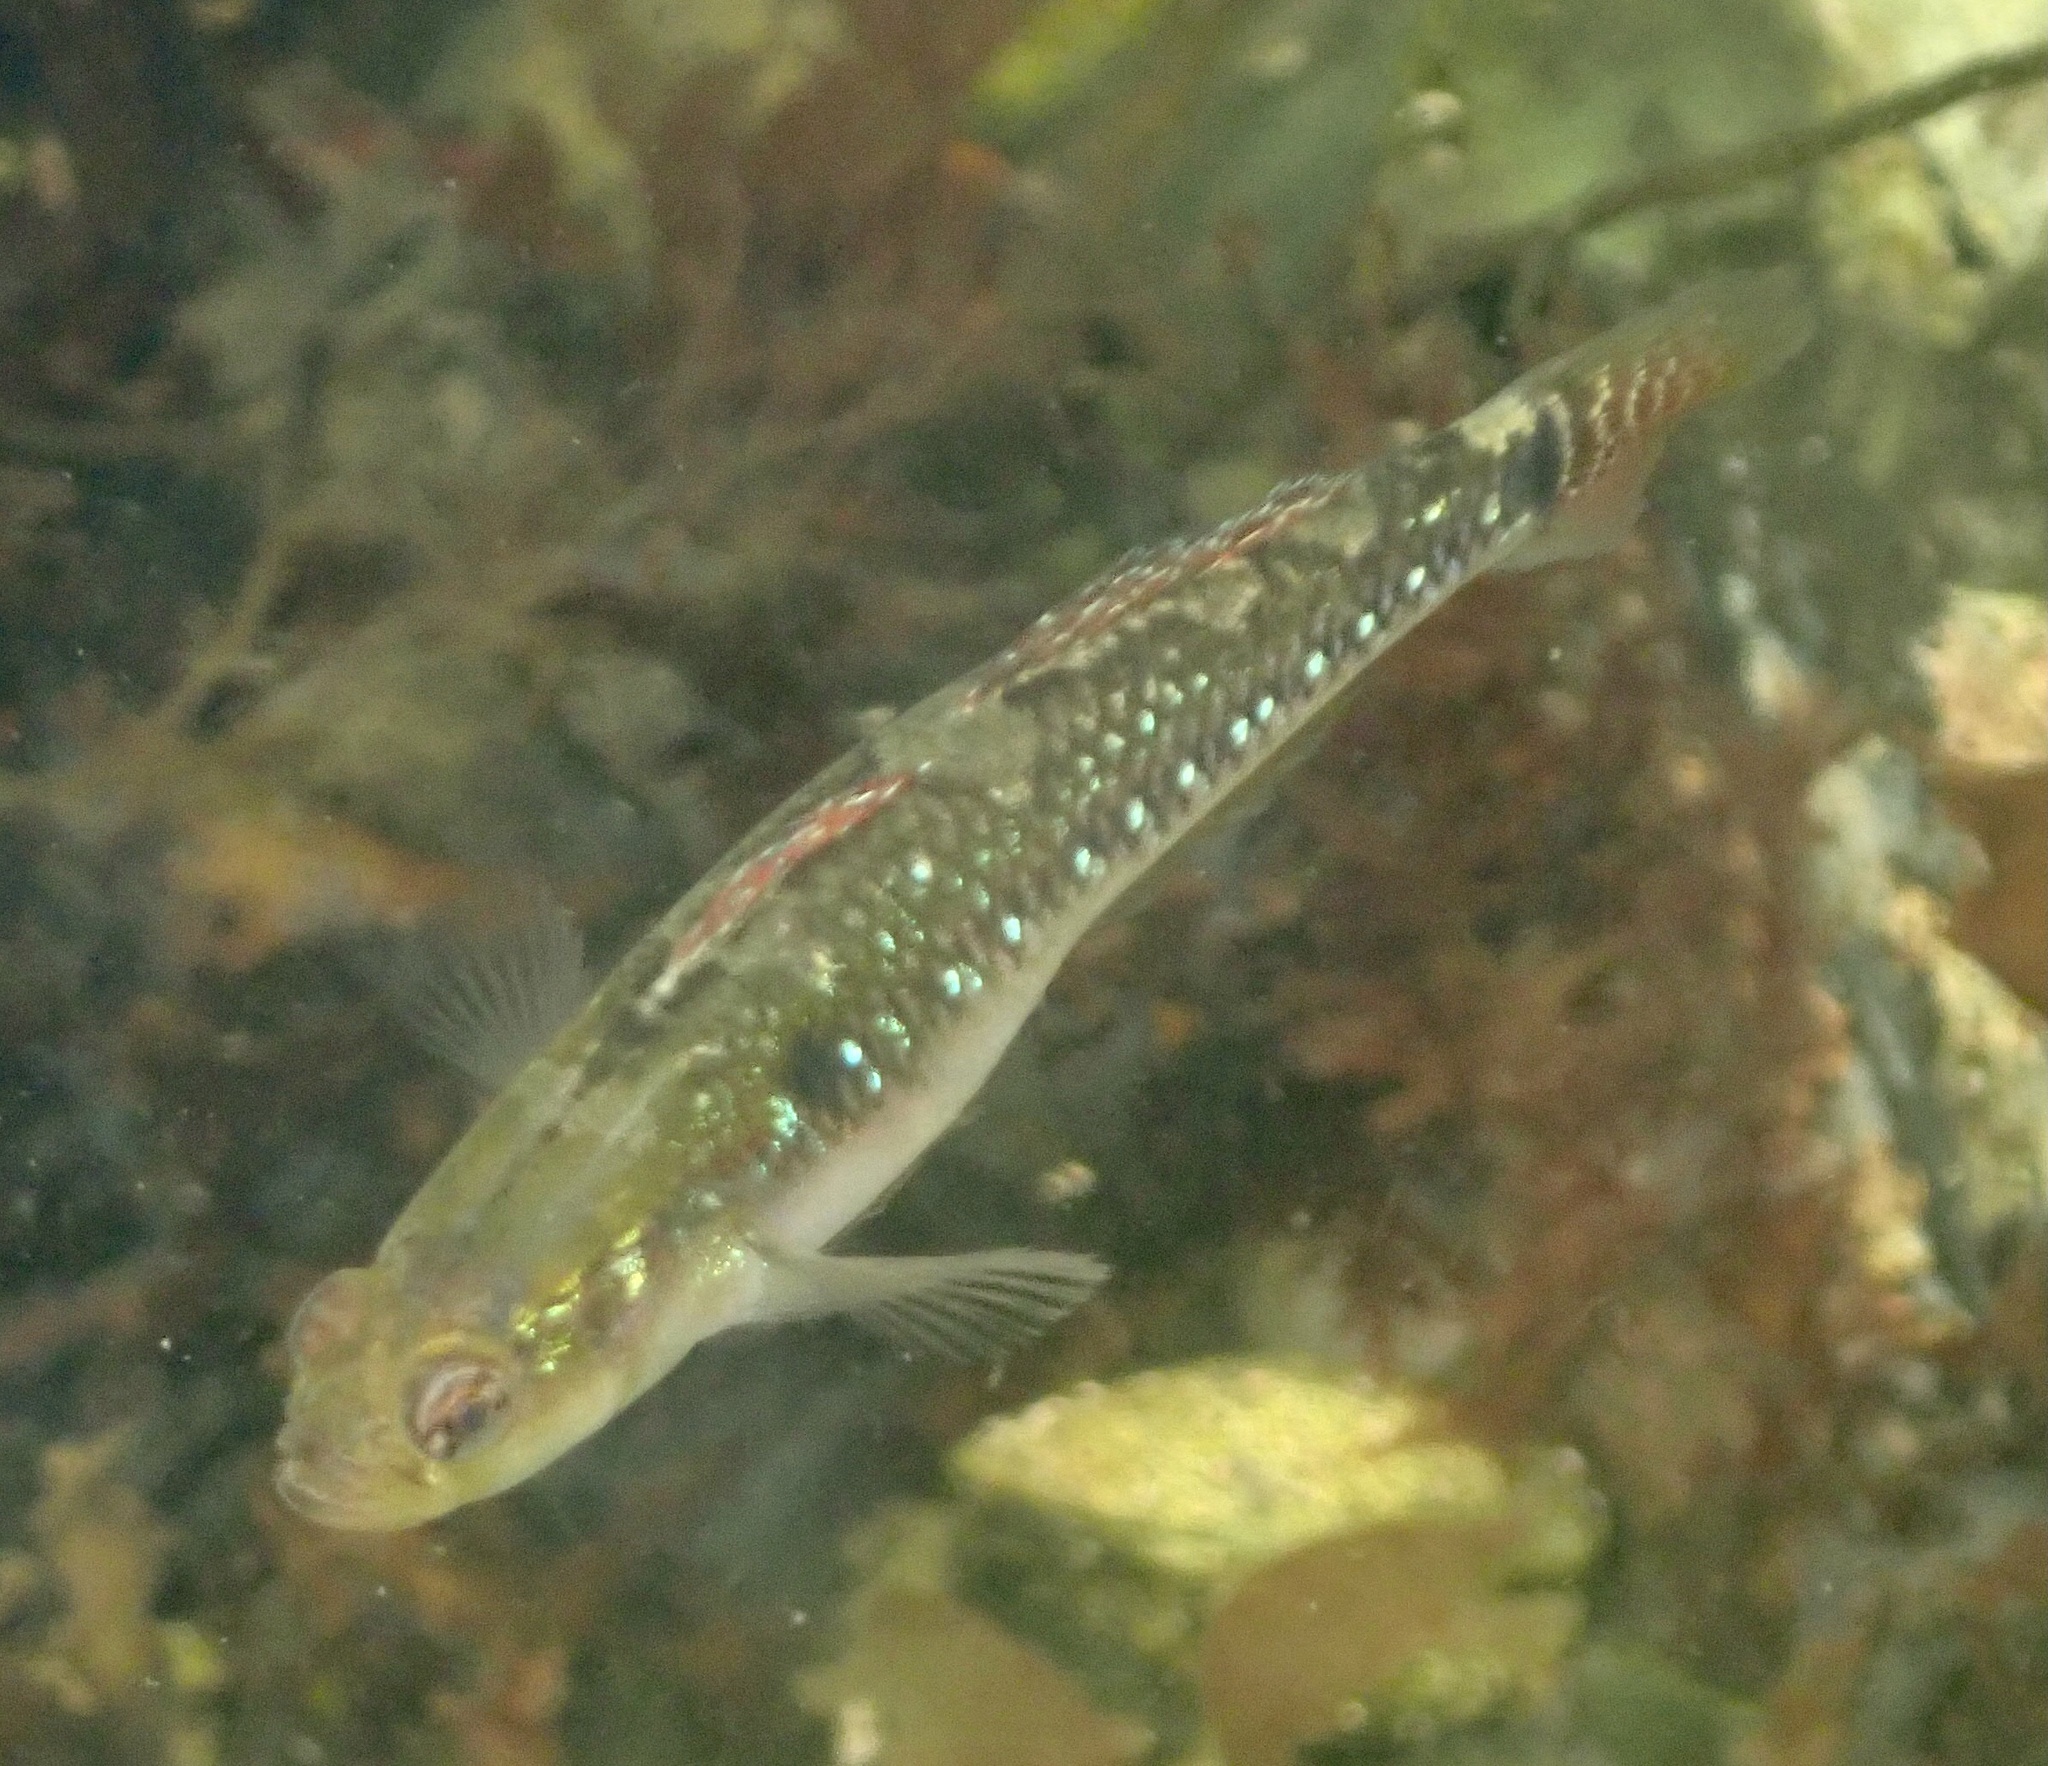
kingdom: Animalia
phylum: Chordata
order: Perciformes
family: Gobiidae
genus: Gobiusculus
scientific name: Gobiusculus flavescens
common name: Two-spotted goby
